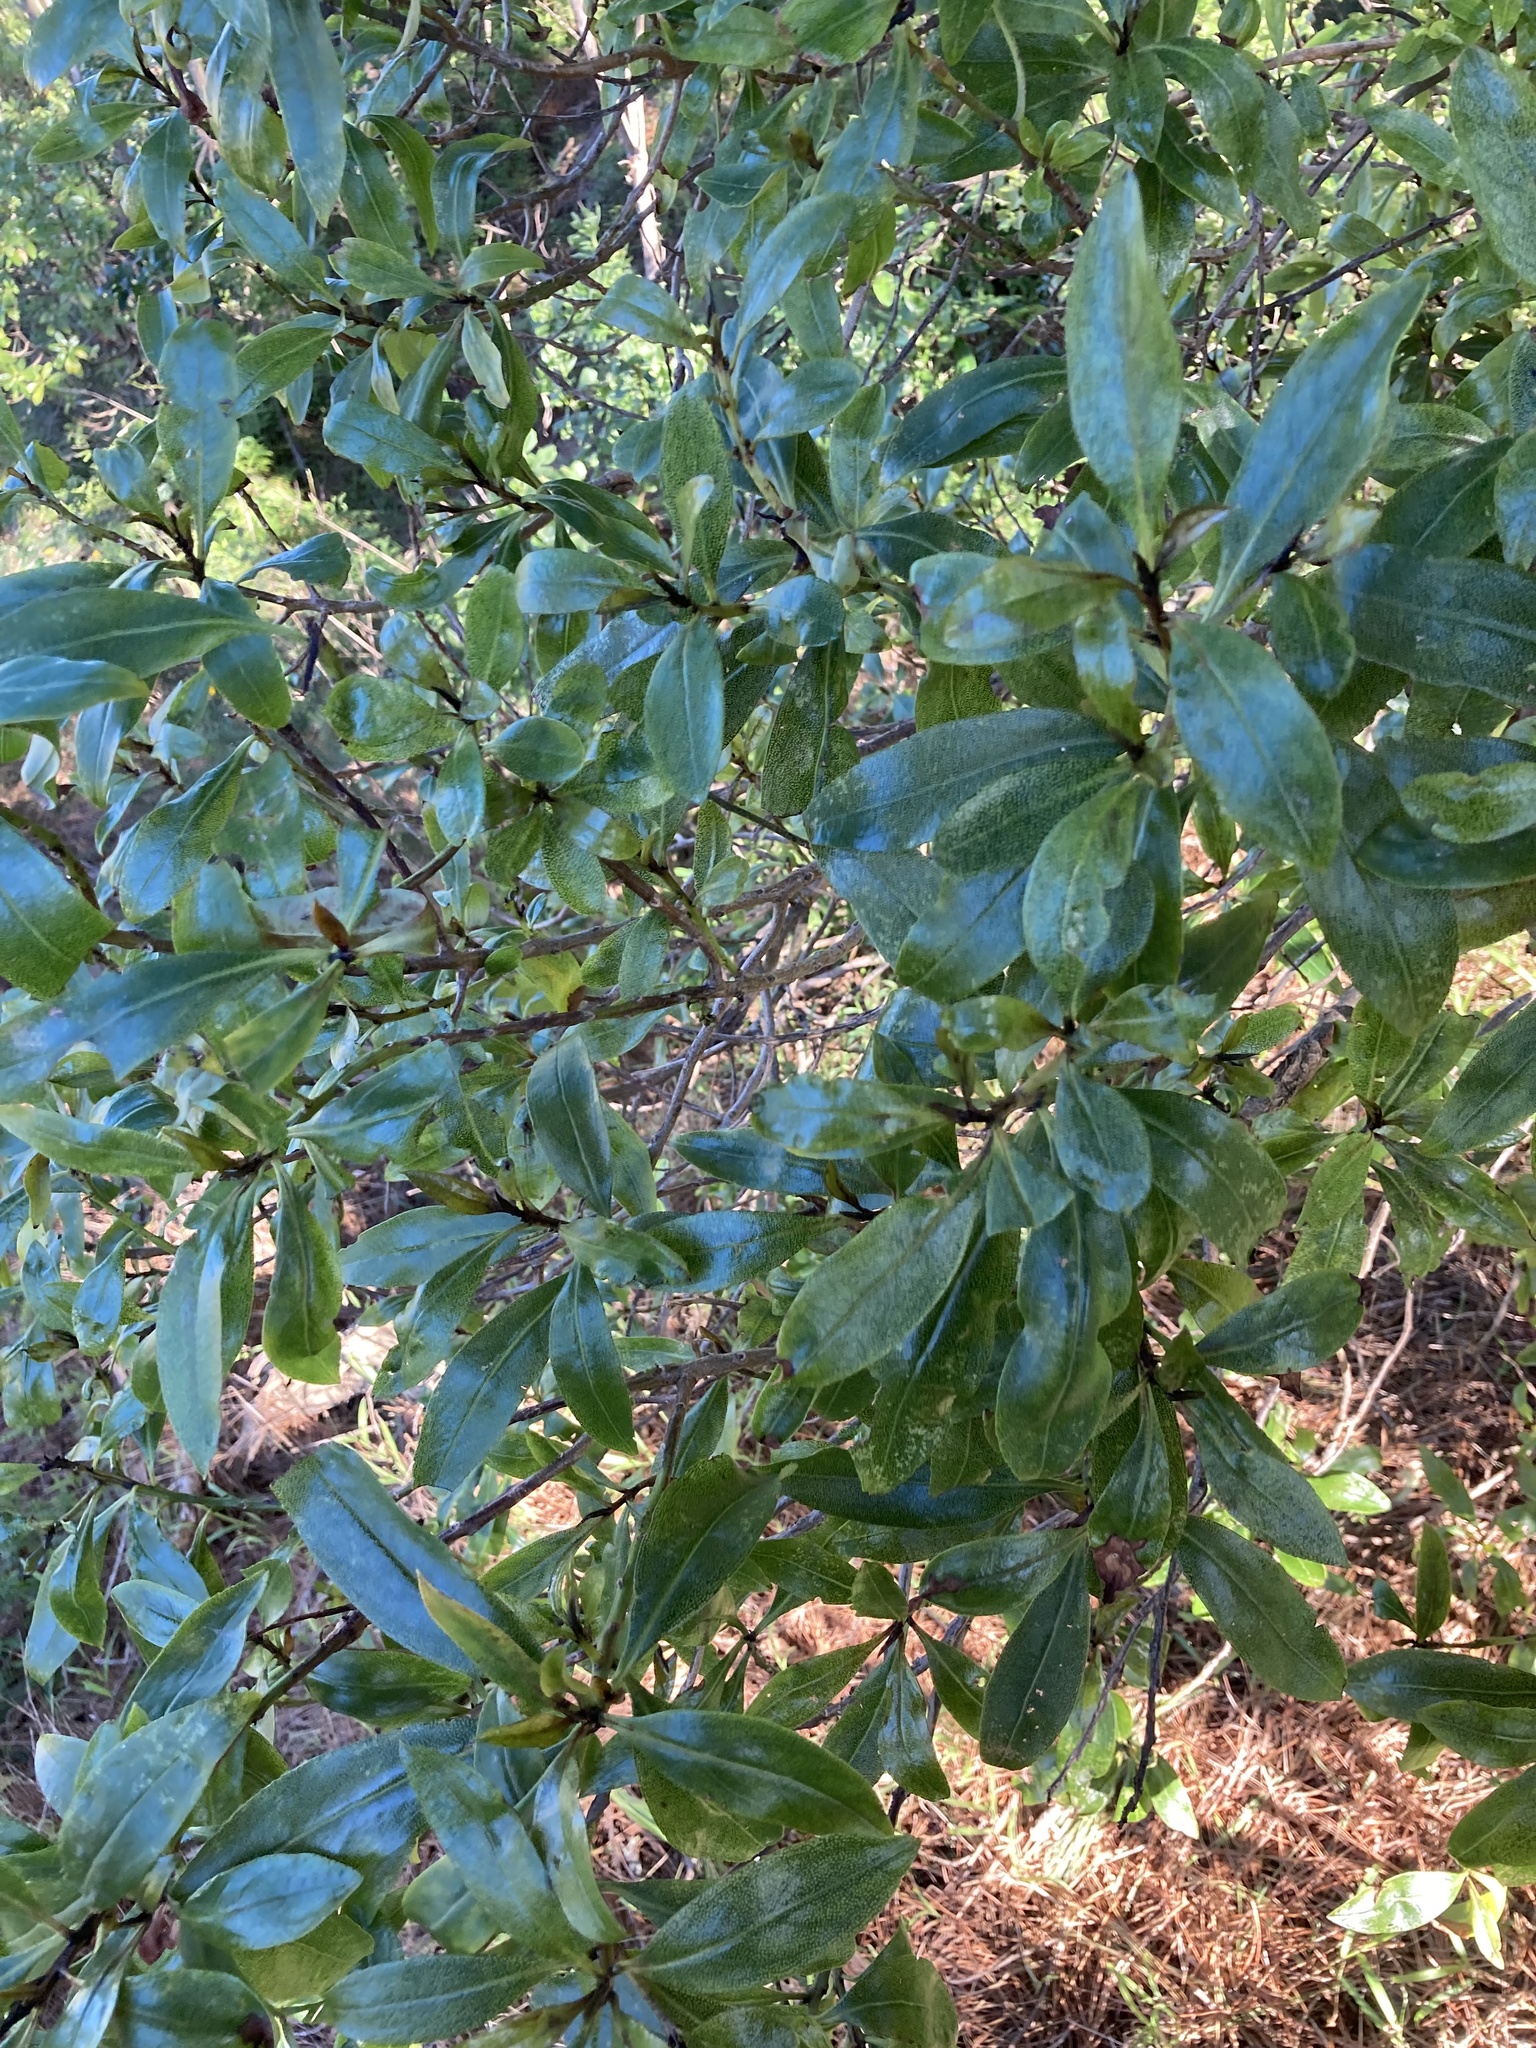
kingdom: Plantae
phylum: Tracheophyta
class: Magnoliopsida
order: Lamiales
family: Scrophulariaceae
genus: Myoporum
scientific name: Myoporum laetum
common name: Ngaio tree
